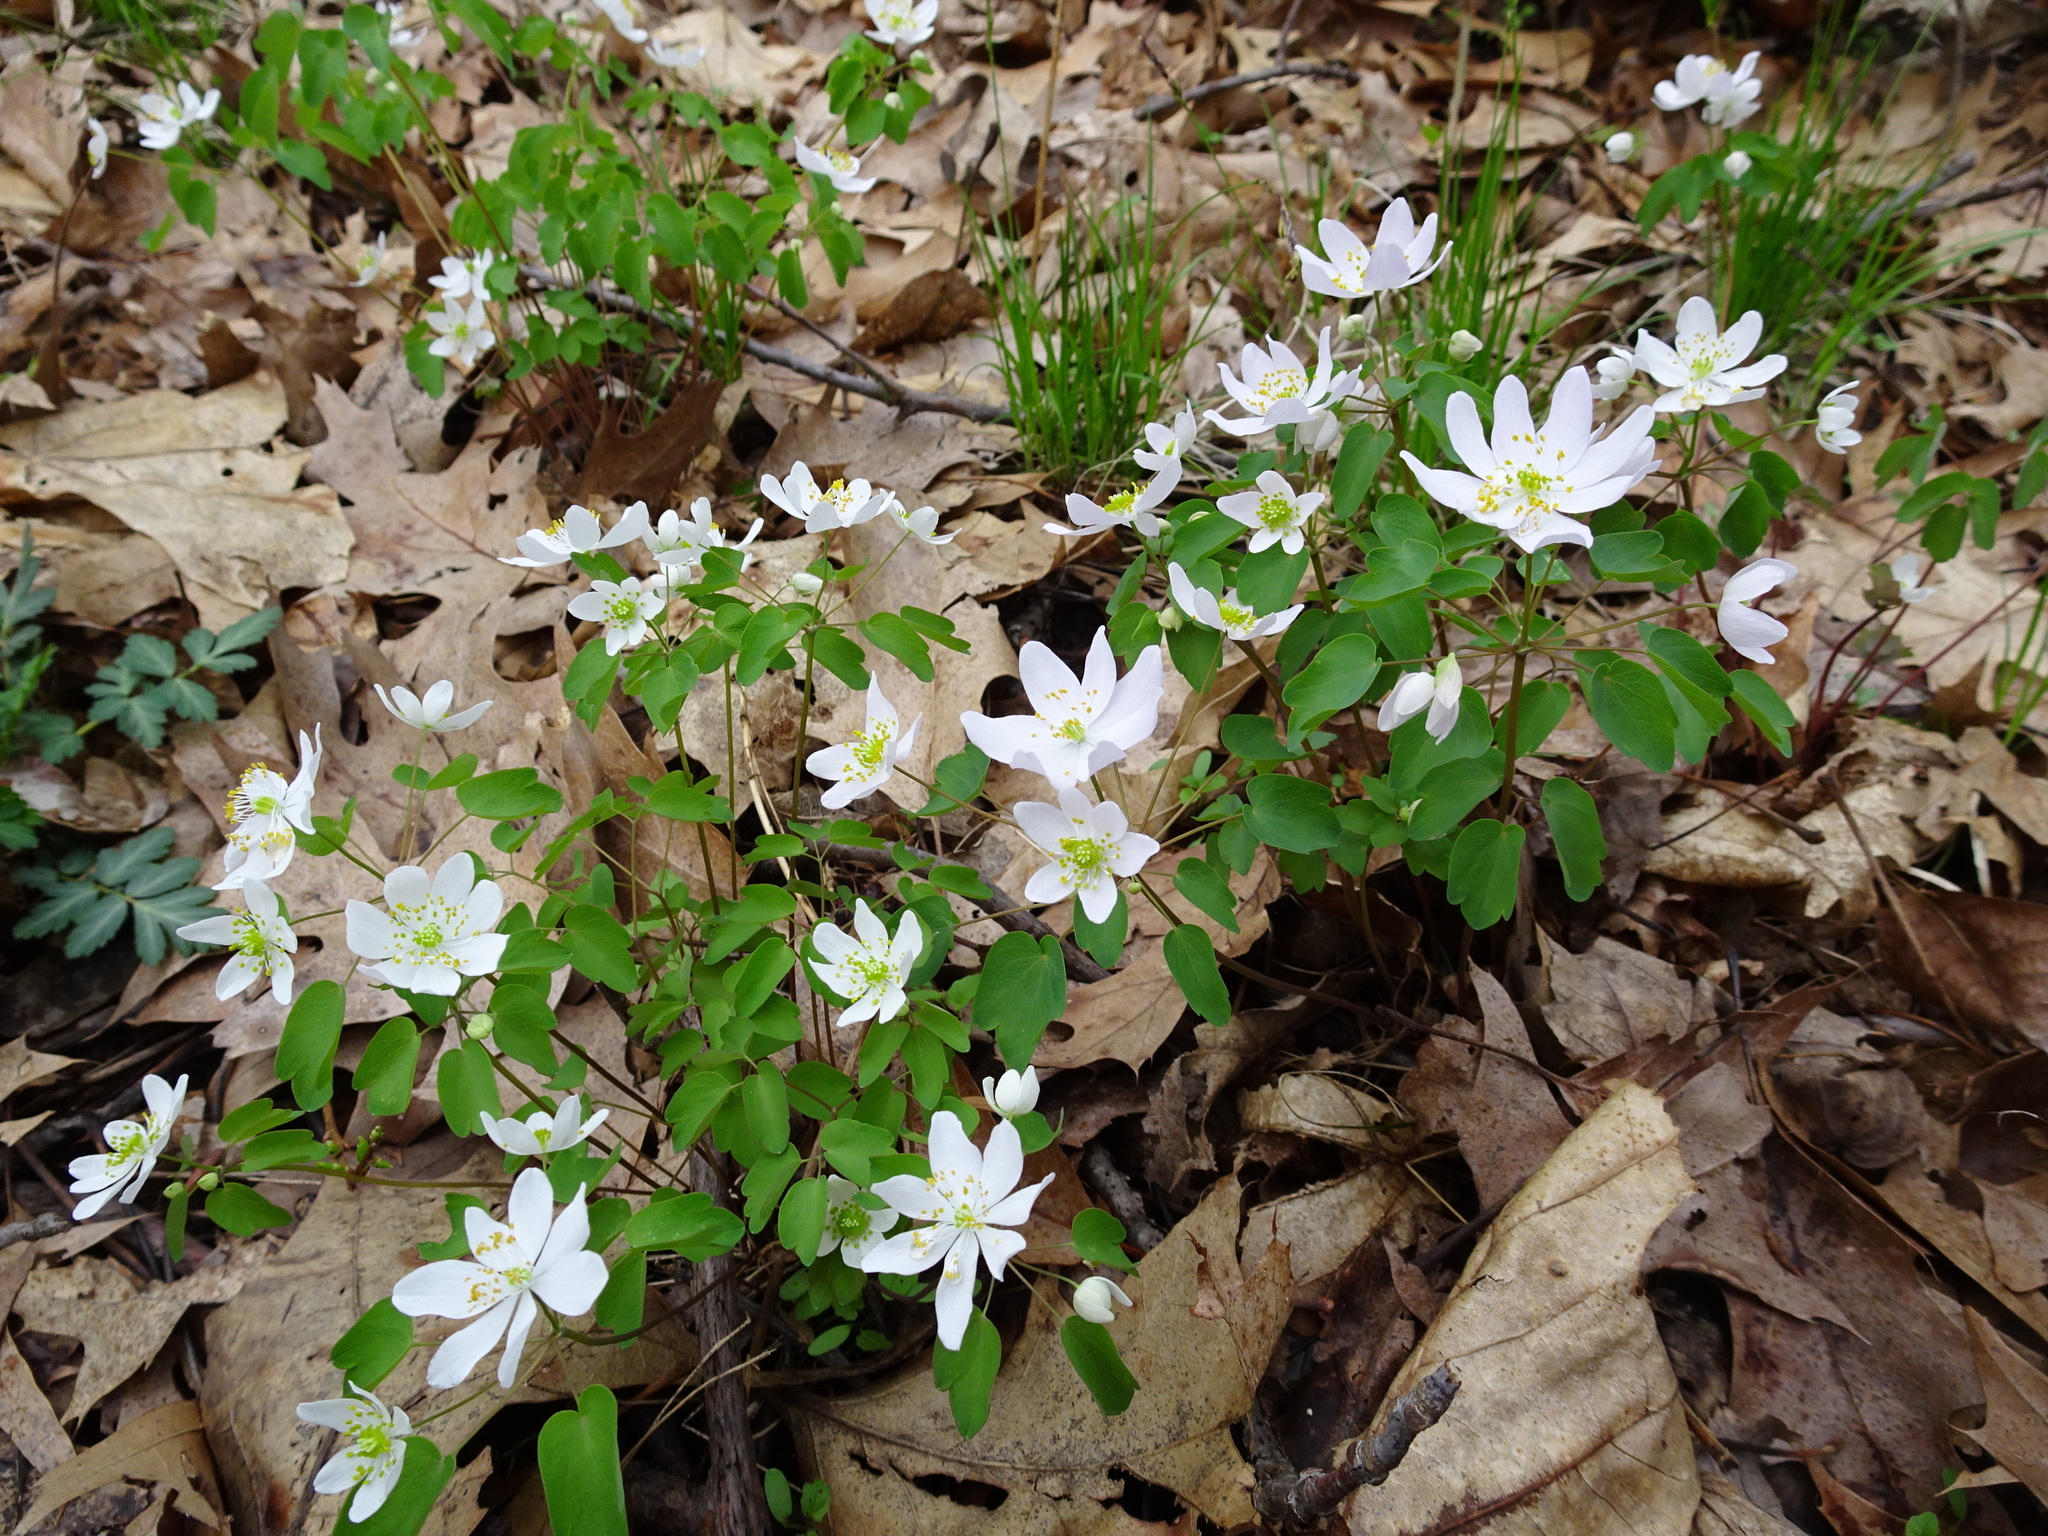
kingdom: Plantae
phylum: Tracheophyta
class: Magnoliopsida
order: Ranunculales
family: Ranunculaceae
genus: Thalictrum
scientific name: Thalictrum thalictroides
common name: Rue-anemone
